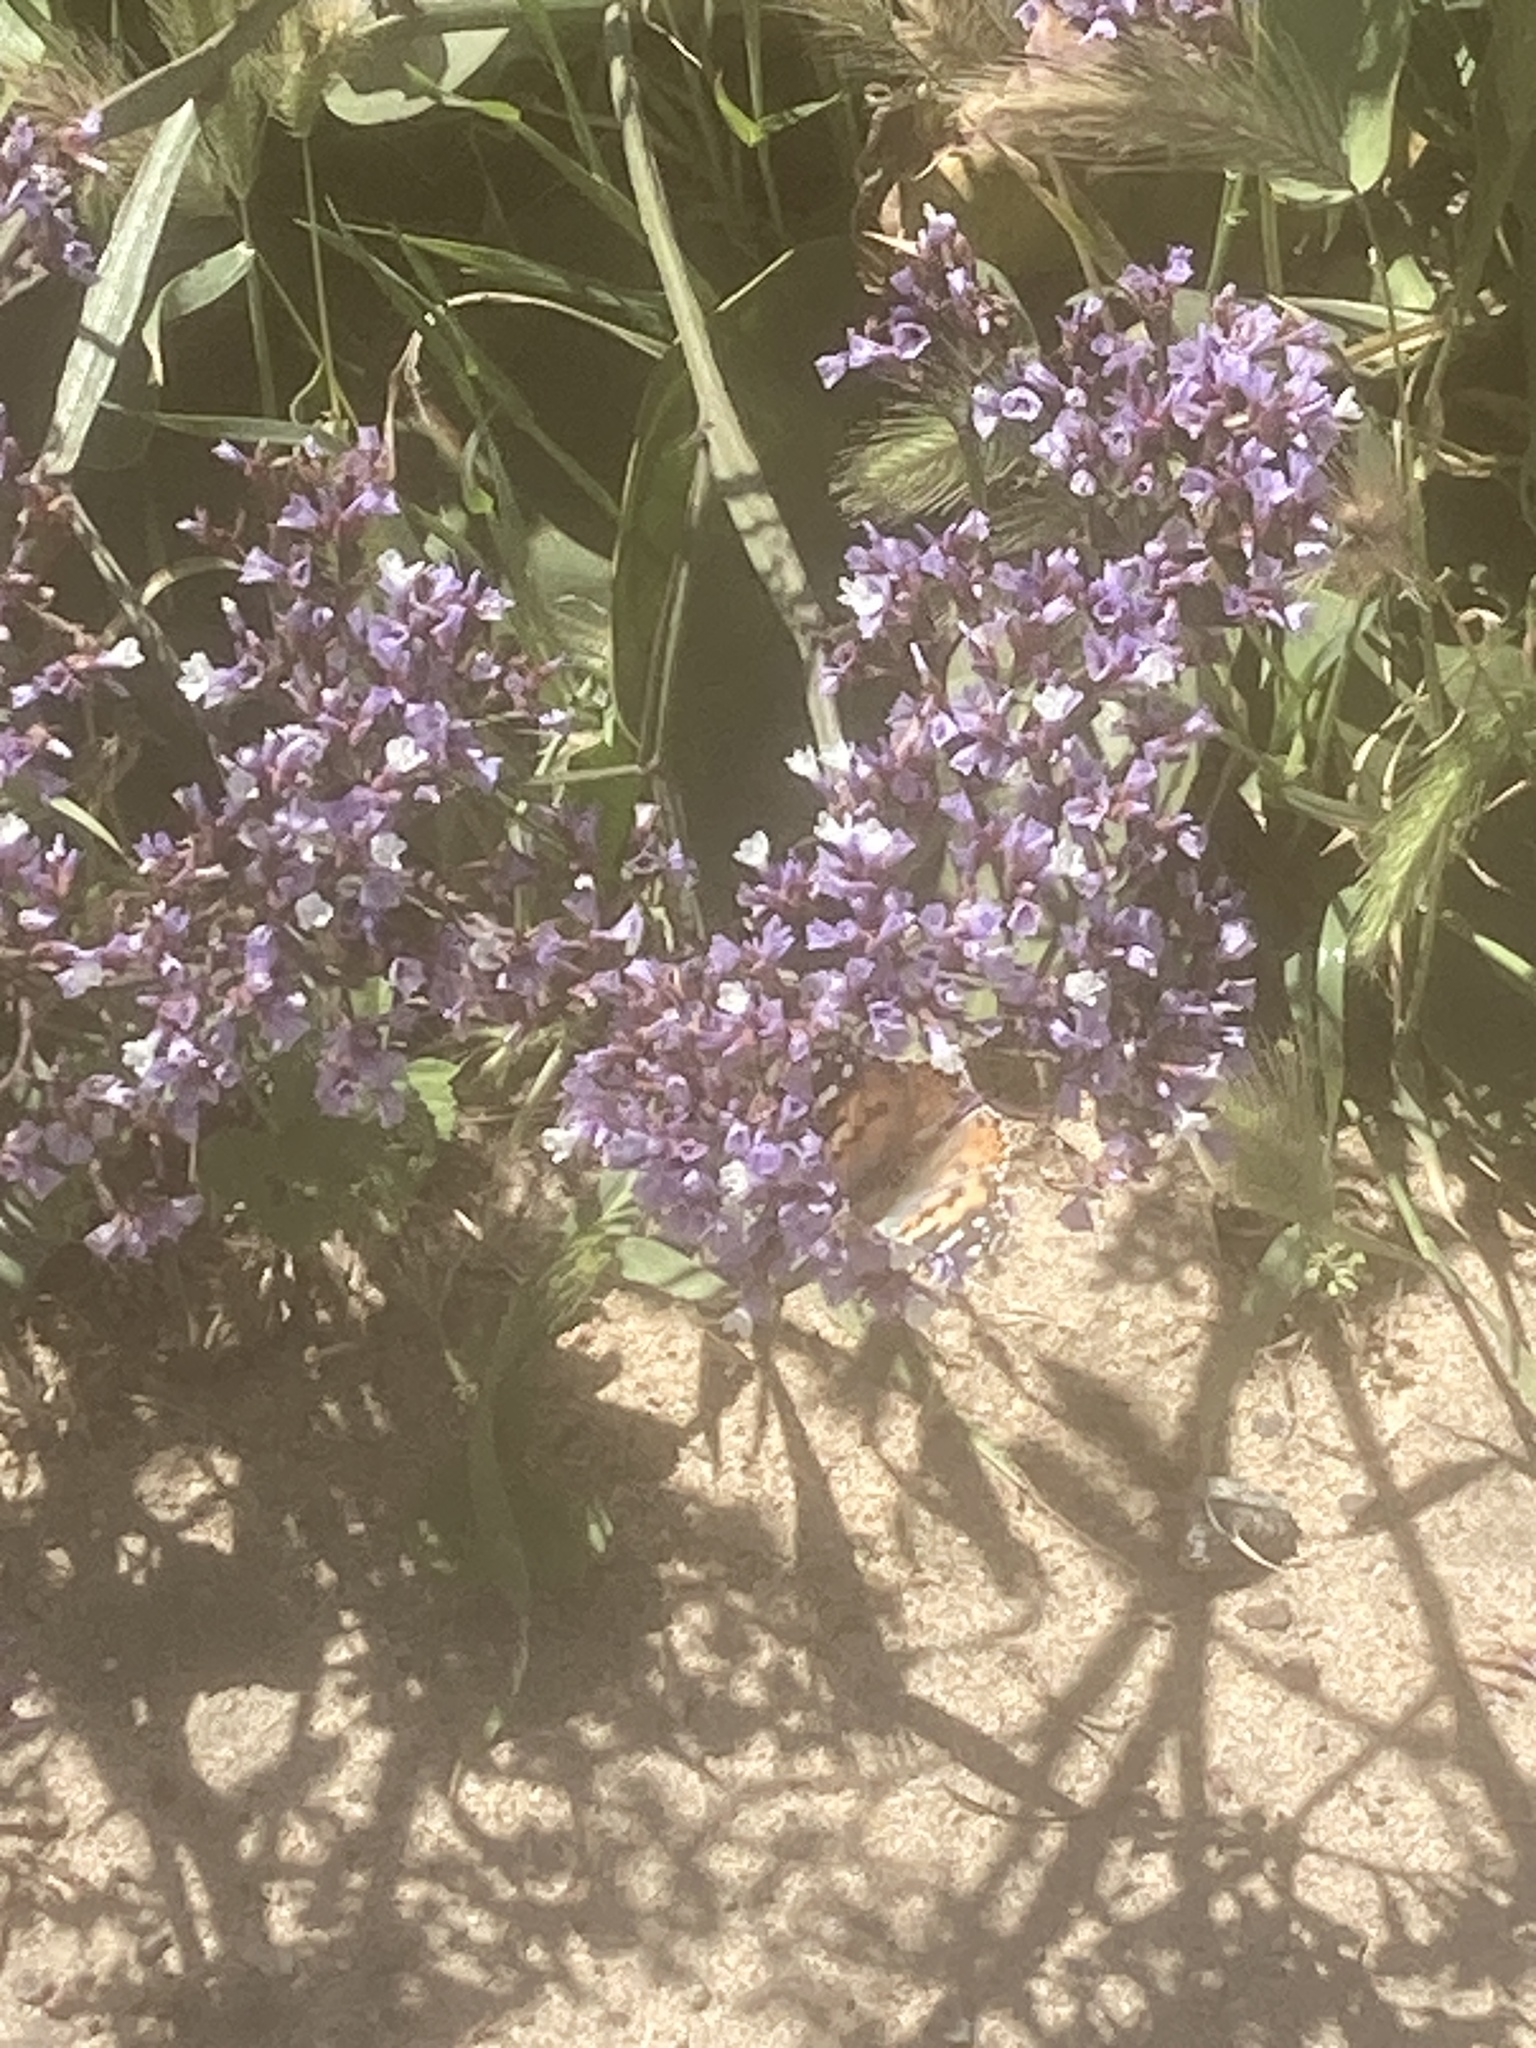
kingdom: Animalia
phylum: Arthropoda
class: Insecta
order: Lepidoptera
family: Nymphalidae
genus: Vanessa
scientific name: Vanessa cardui
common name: Painted lady
